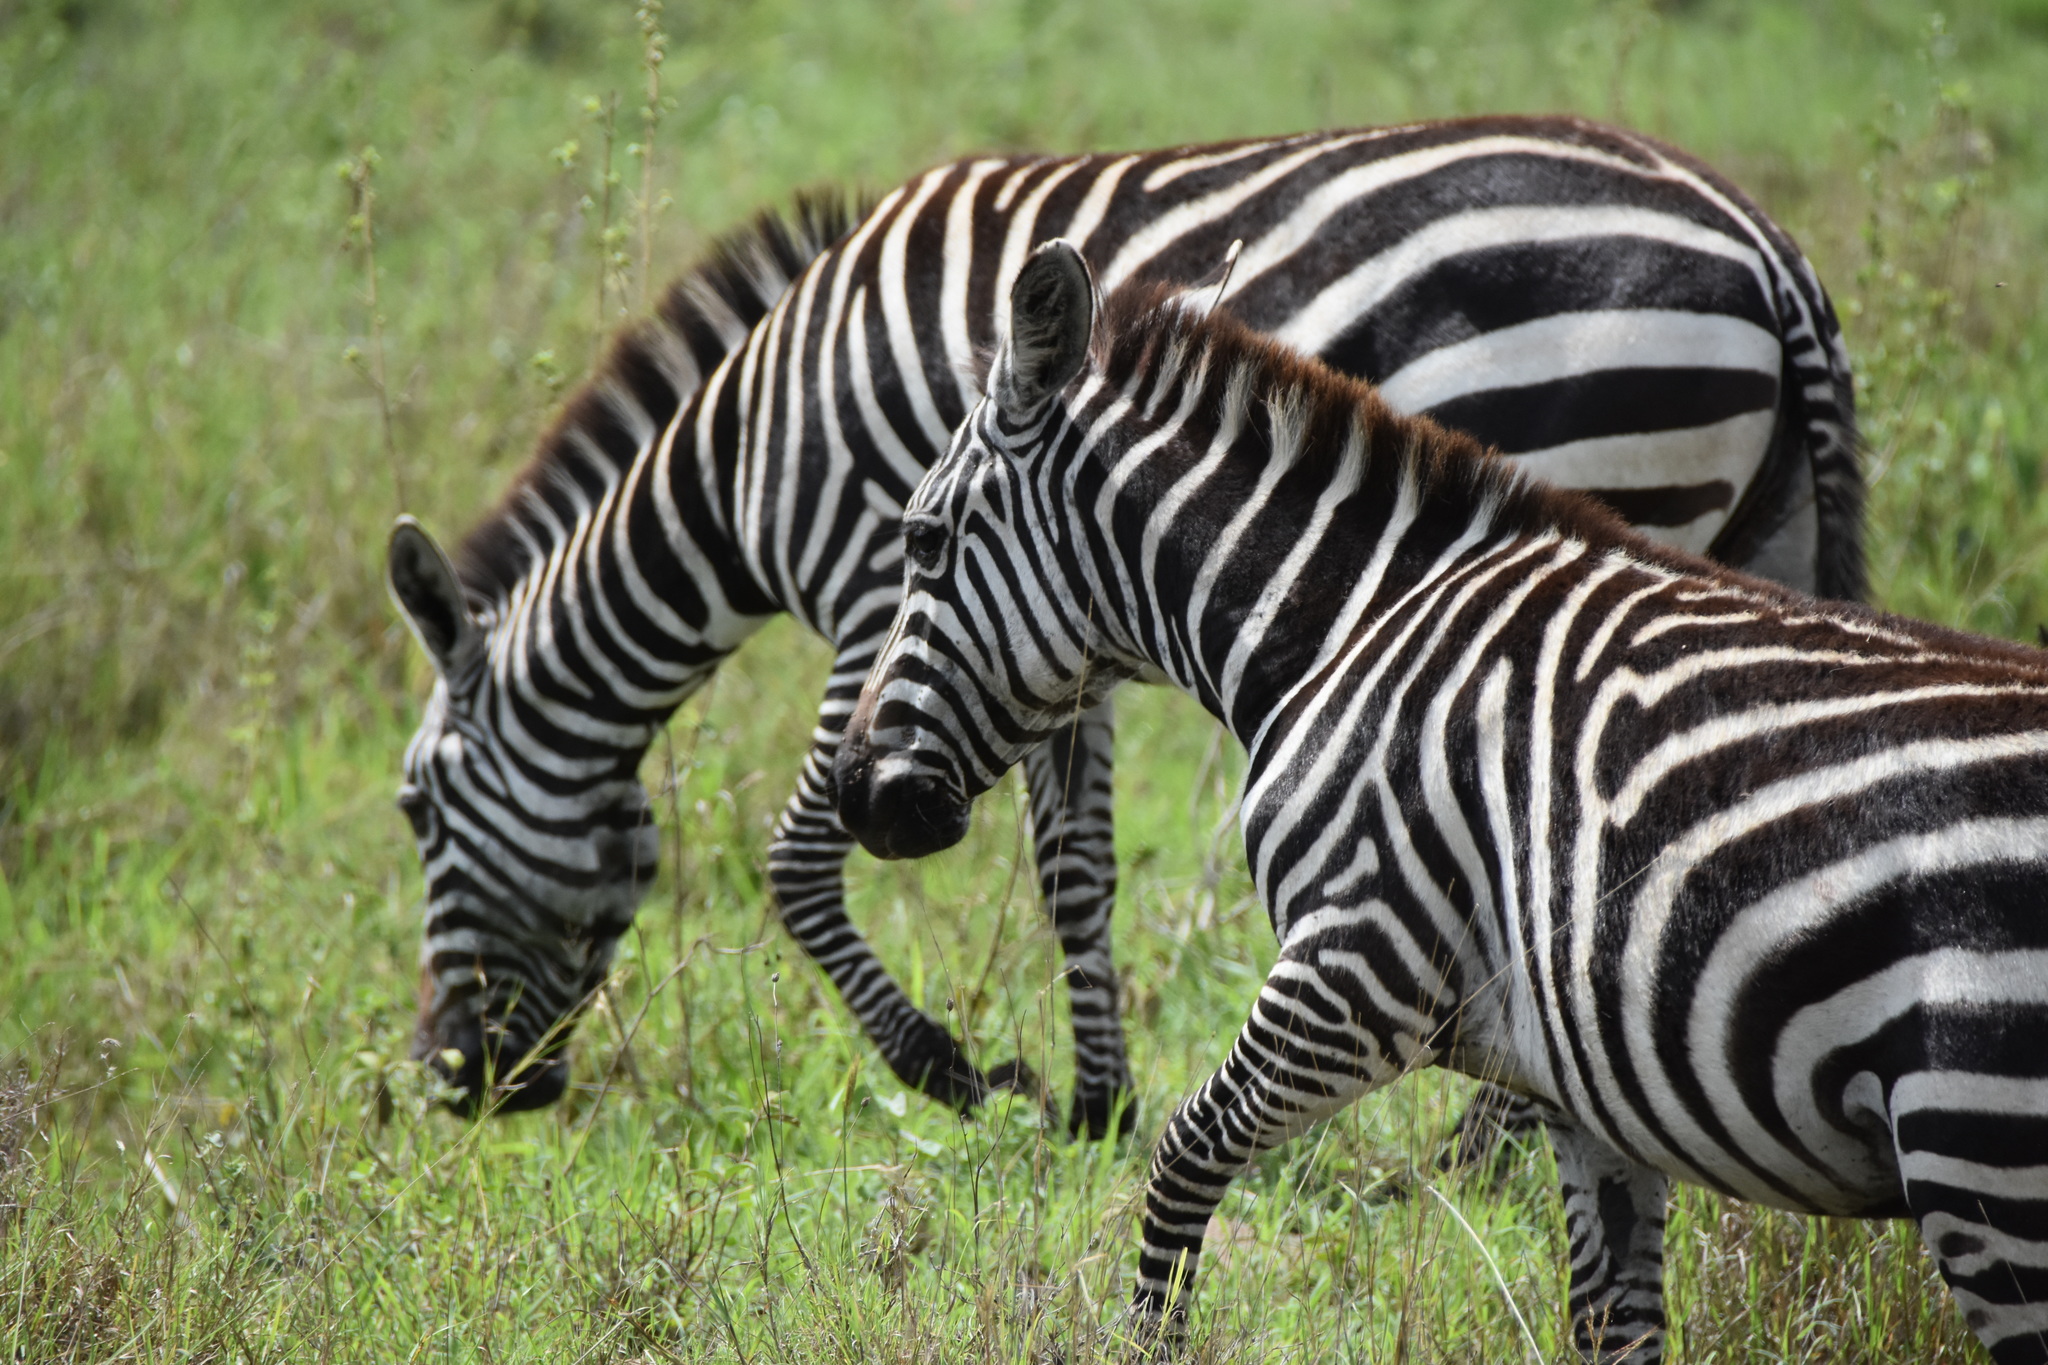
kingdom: Animalia
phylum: Chordata
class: Mammalia
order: Perissodactyla
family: Equidae
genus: Equus
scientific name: Equus quagga
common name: Plains zebra
